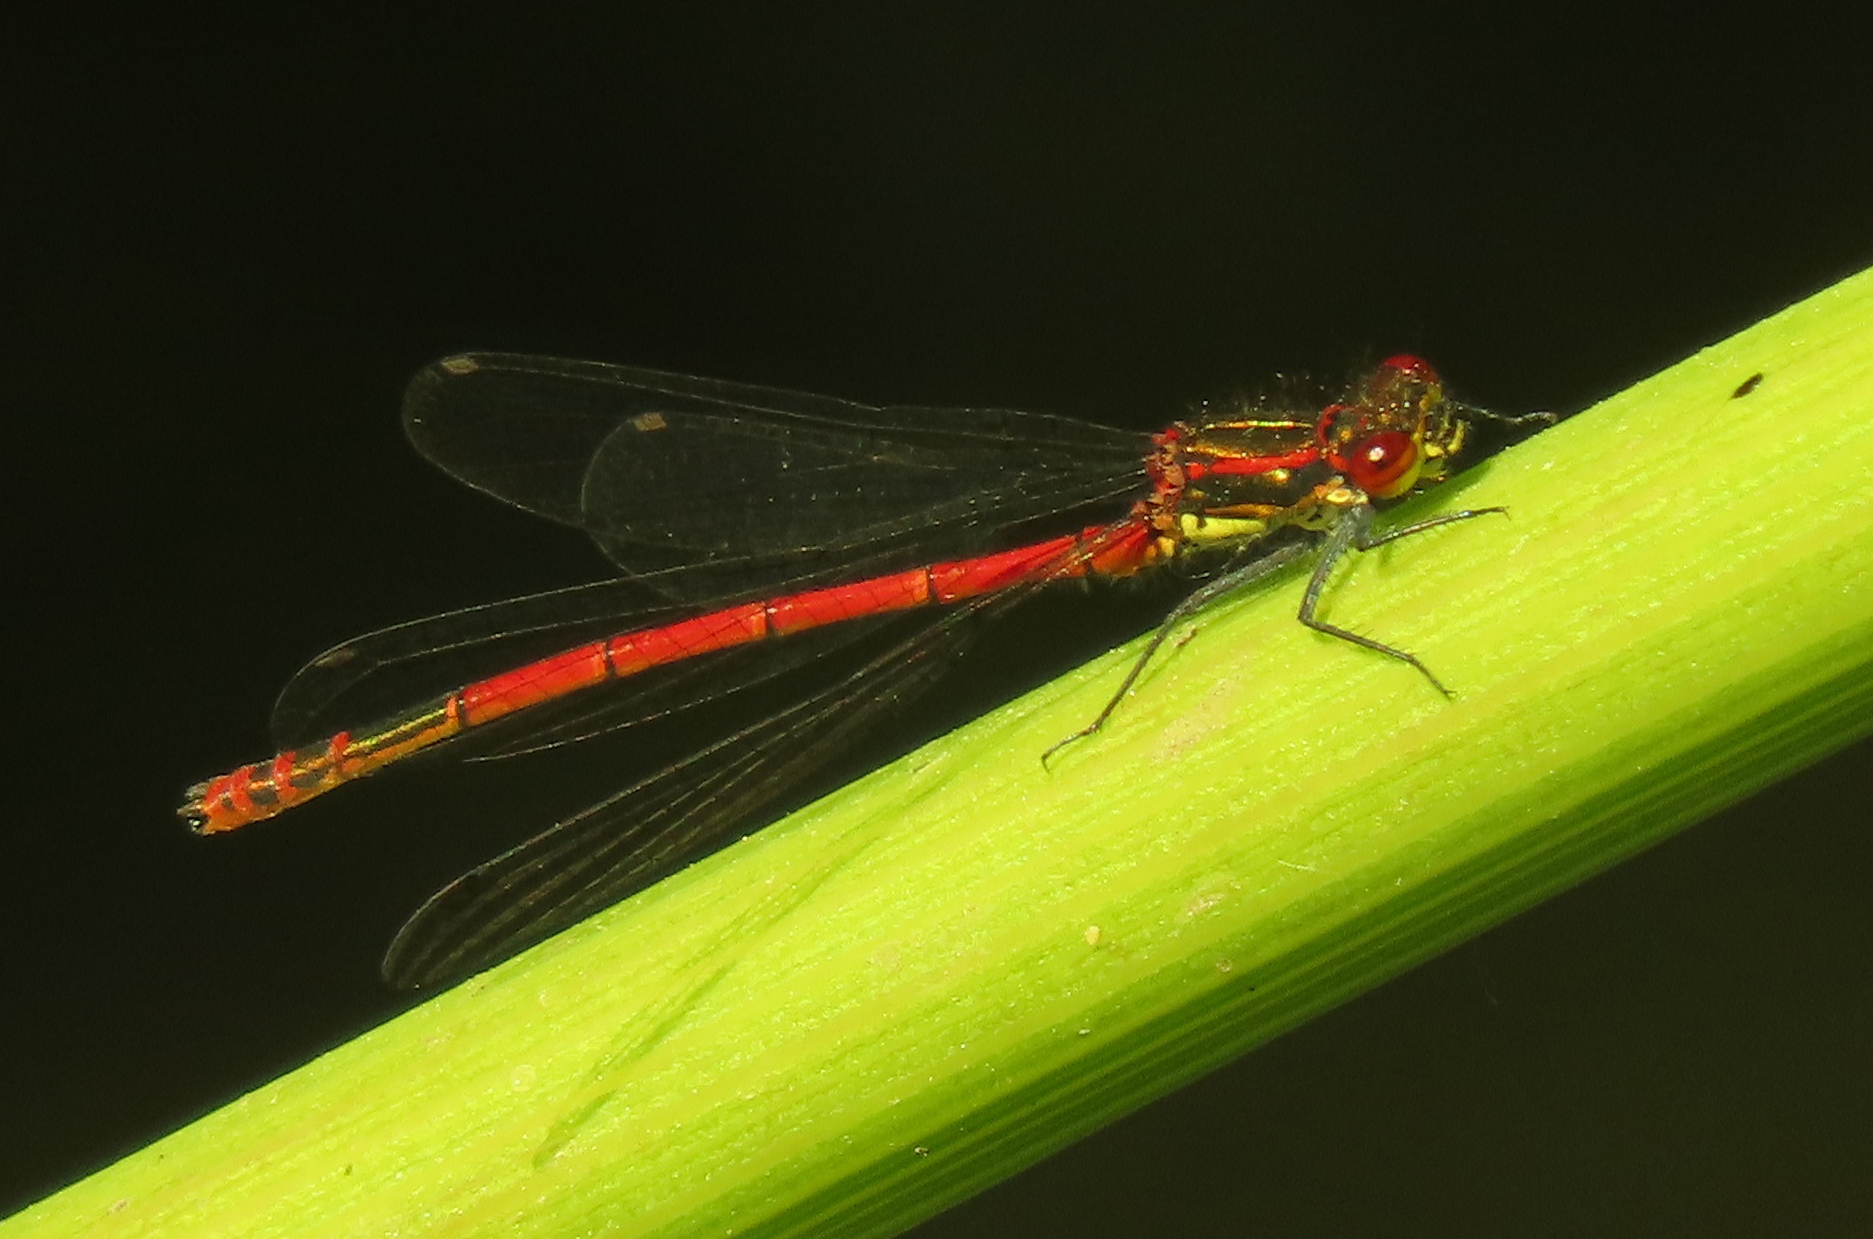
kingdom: Animalia
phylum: Arthropoda
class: Insecta
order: Odonata
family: Coenagrionidae
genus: Pyrrhosoma
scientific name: Pyrrhosoma nymphula
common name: Large red damsel
